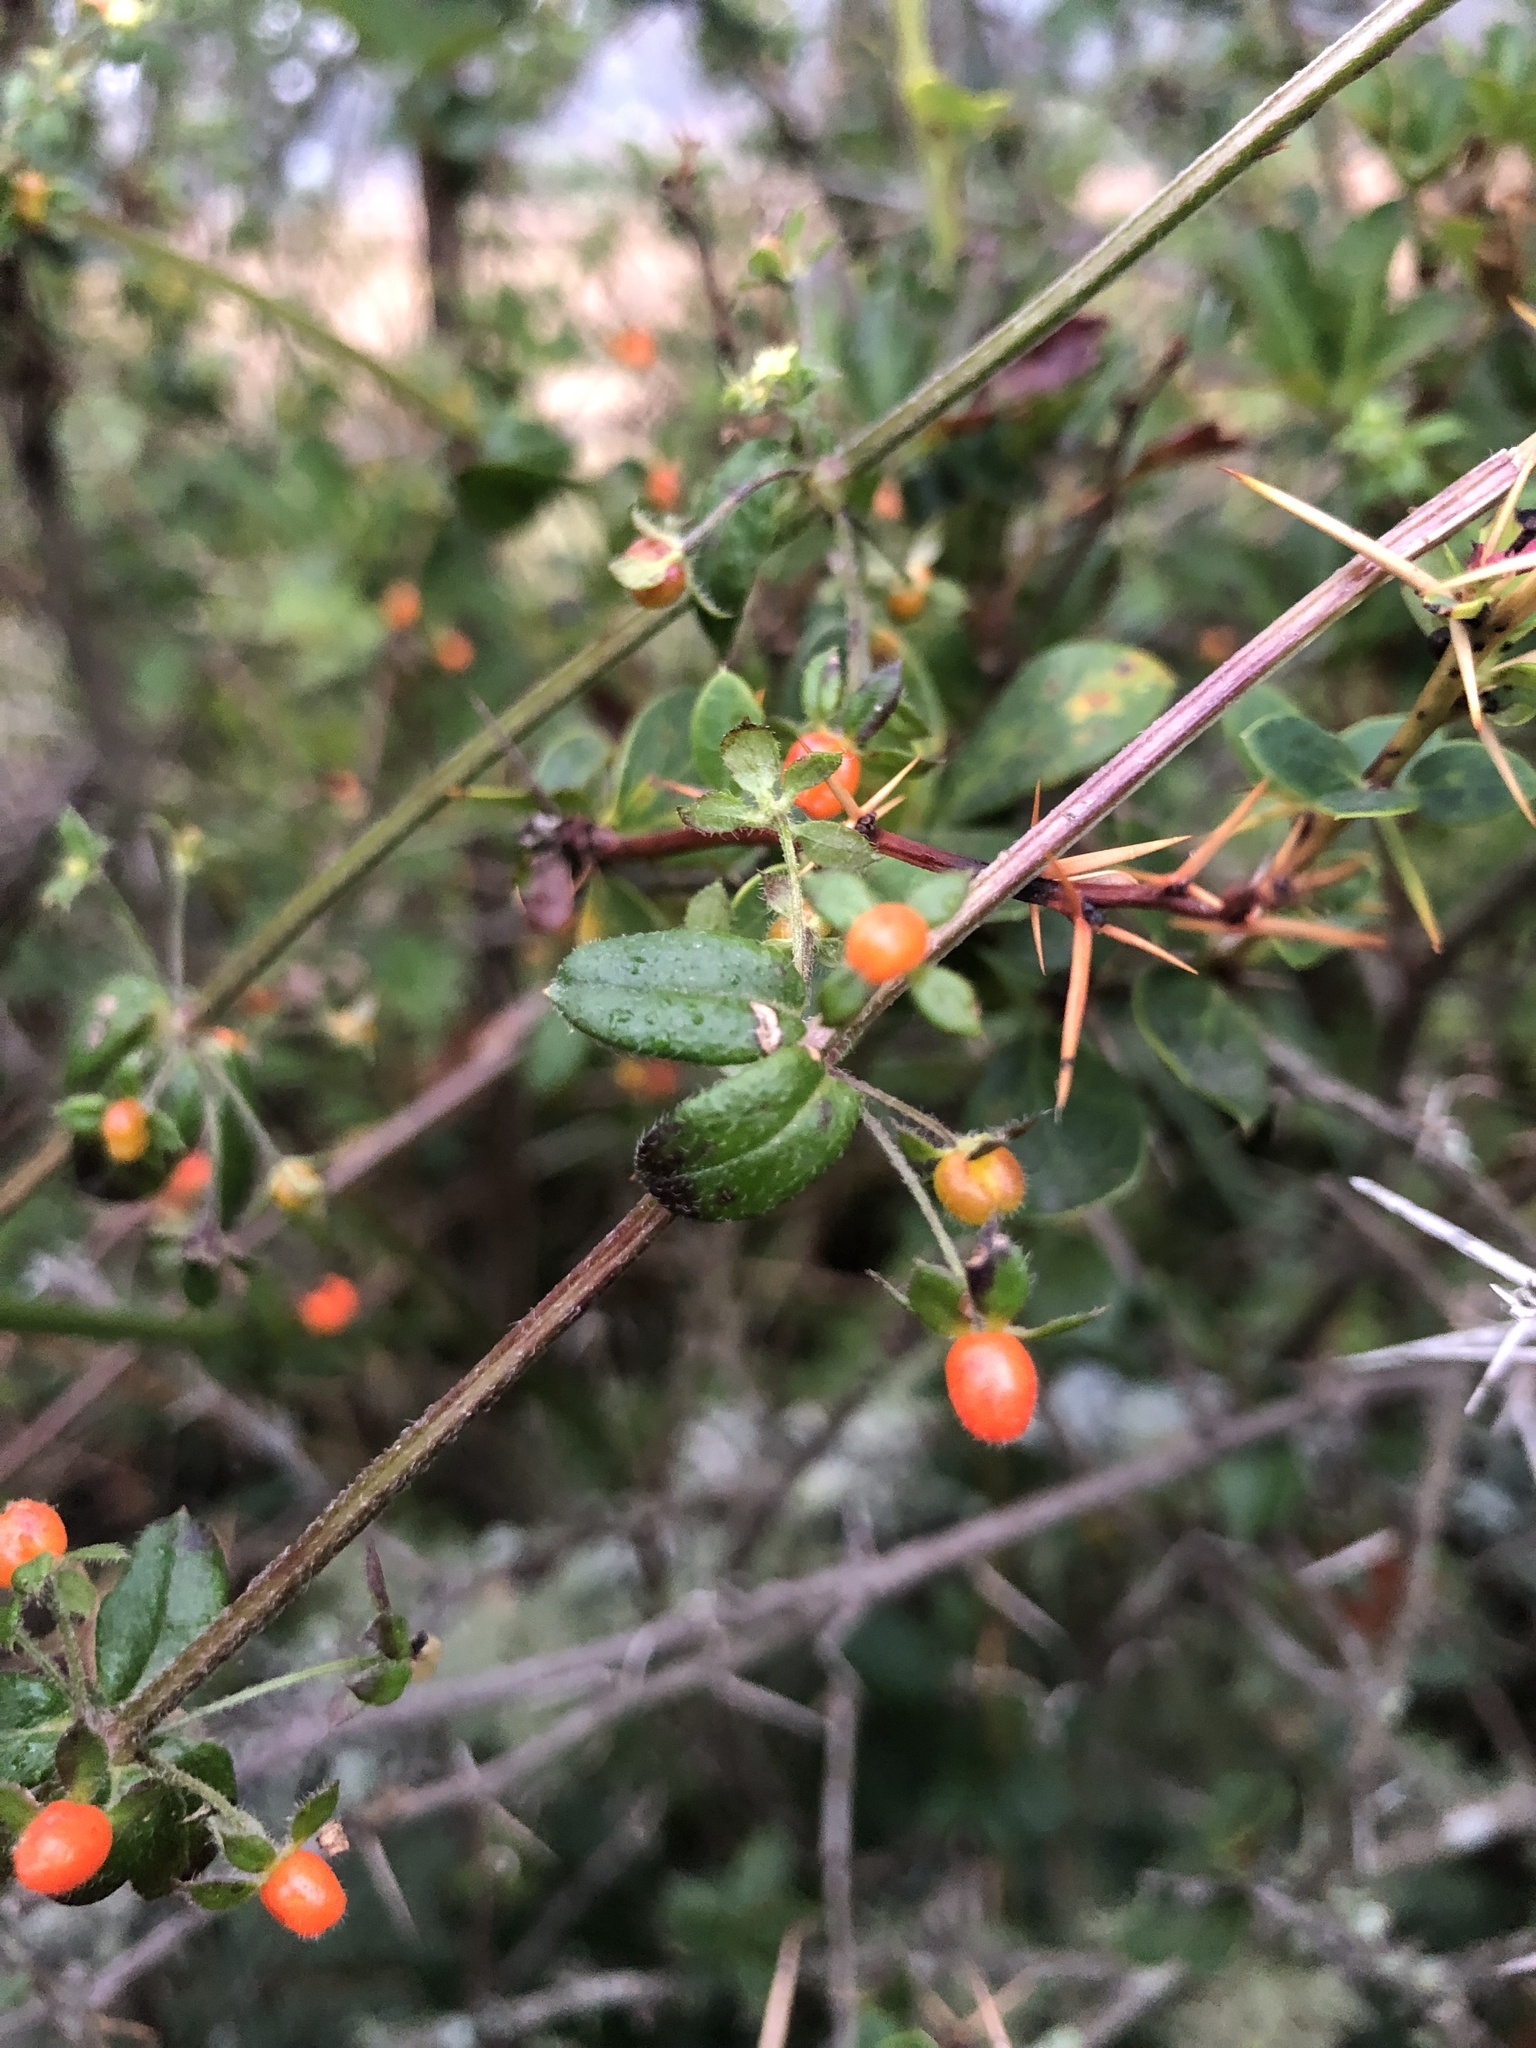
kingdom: Plantae
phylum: Tracheophyta
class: Magnoliopsida
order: Gentianales
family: Rubiaceae
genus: Galium
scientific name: Galium hypocarpium
